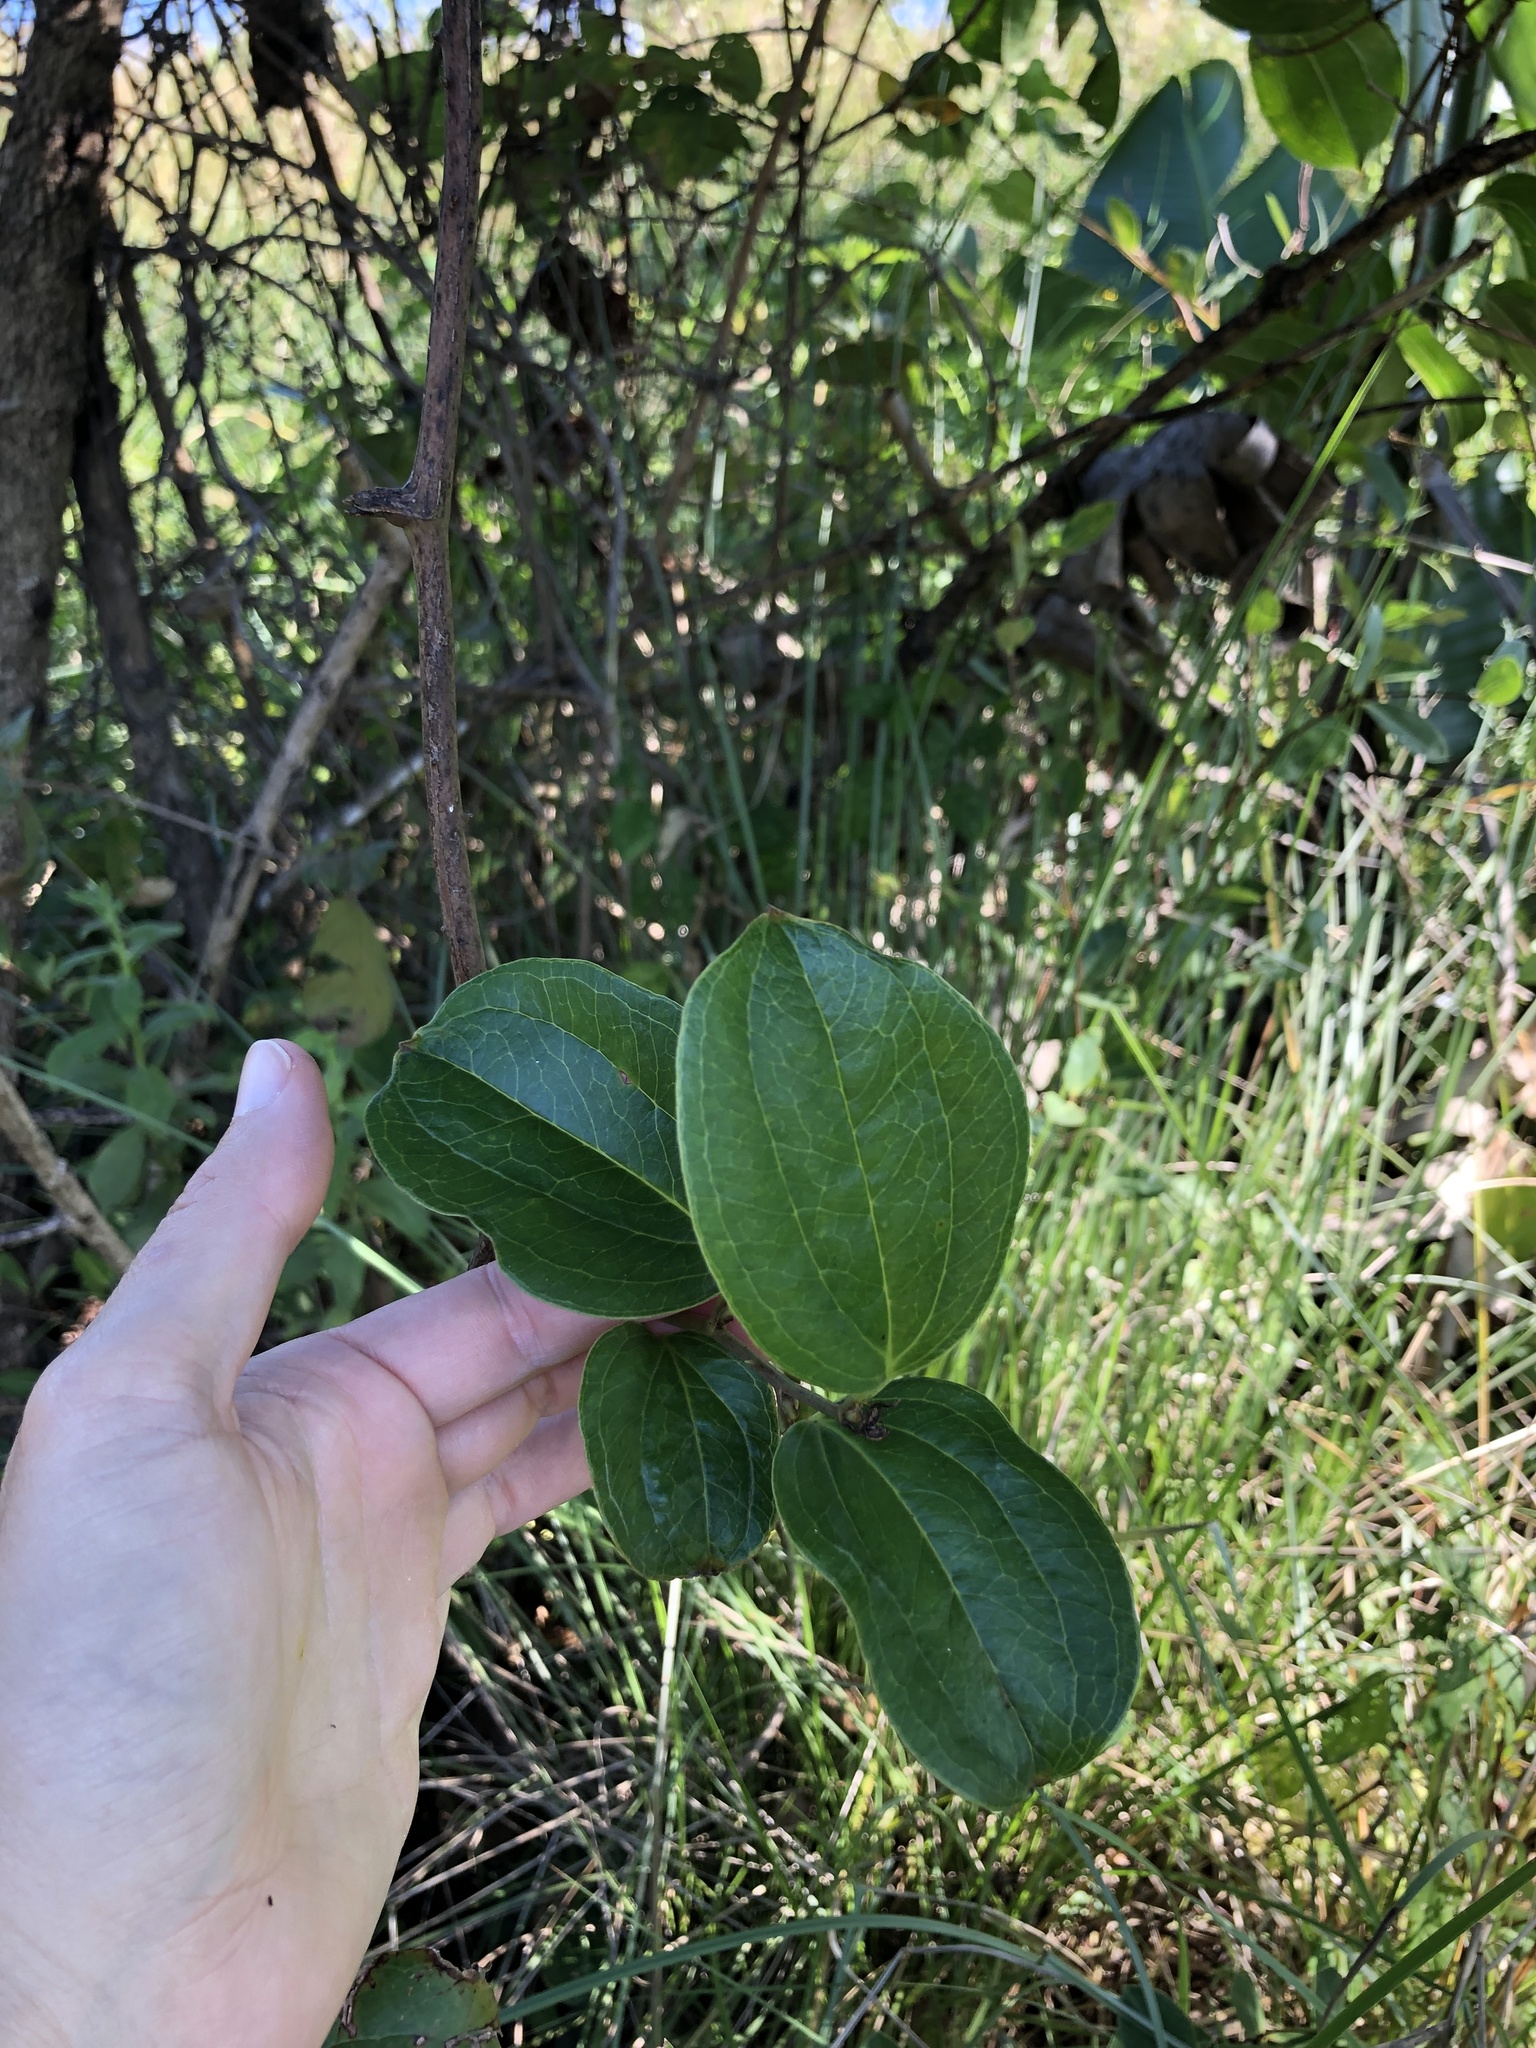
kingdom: Plantae
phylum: Tracheophyta
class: Liliopsida
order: Liliales
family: Smilacaceae
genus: Smilax
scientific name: Smilax anceps
